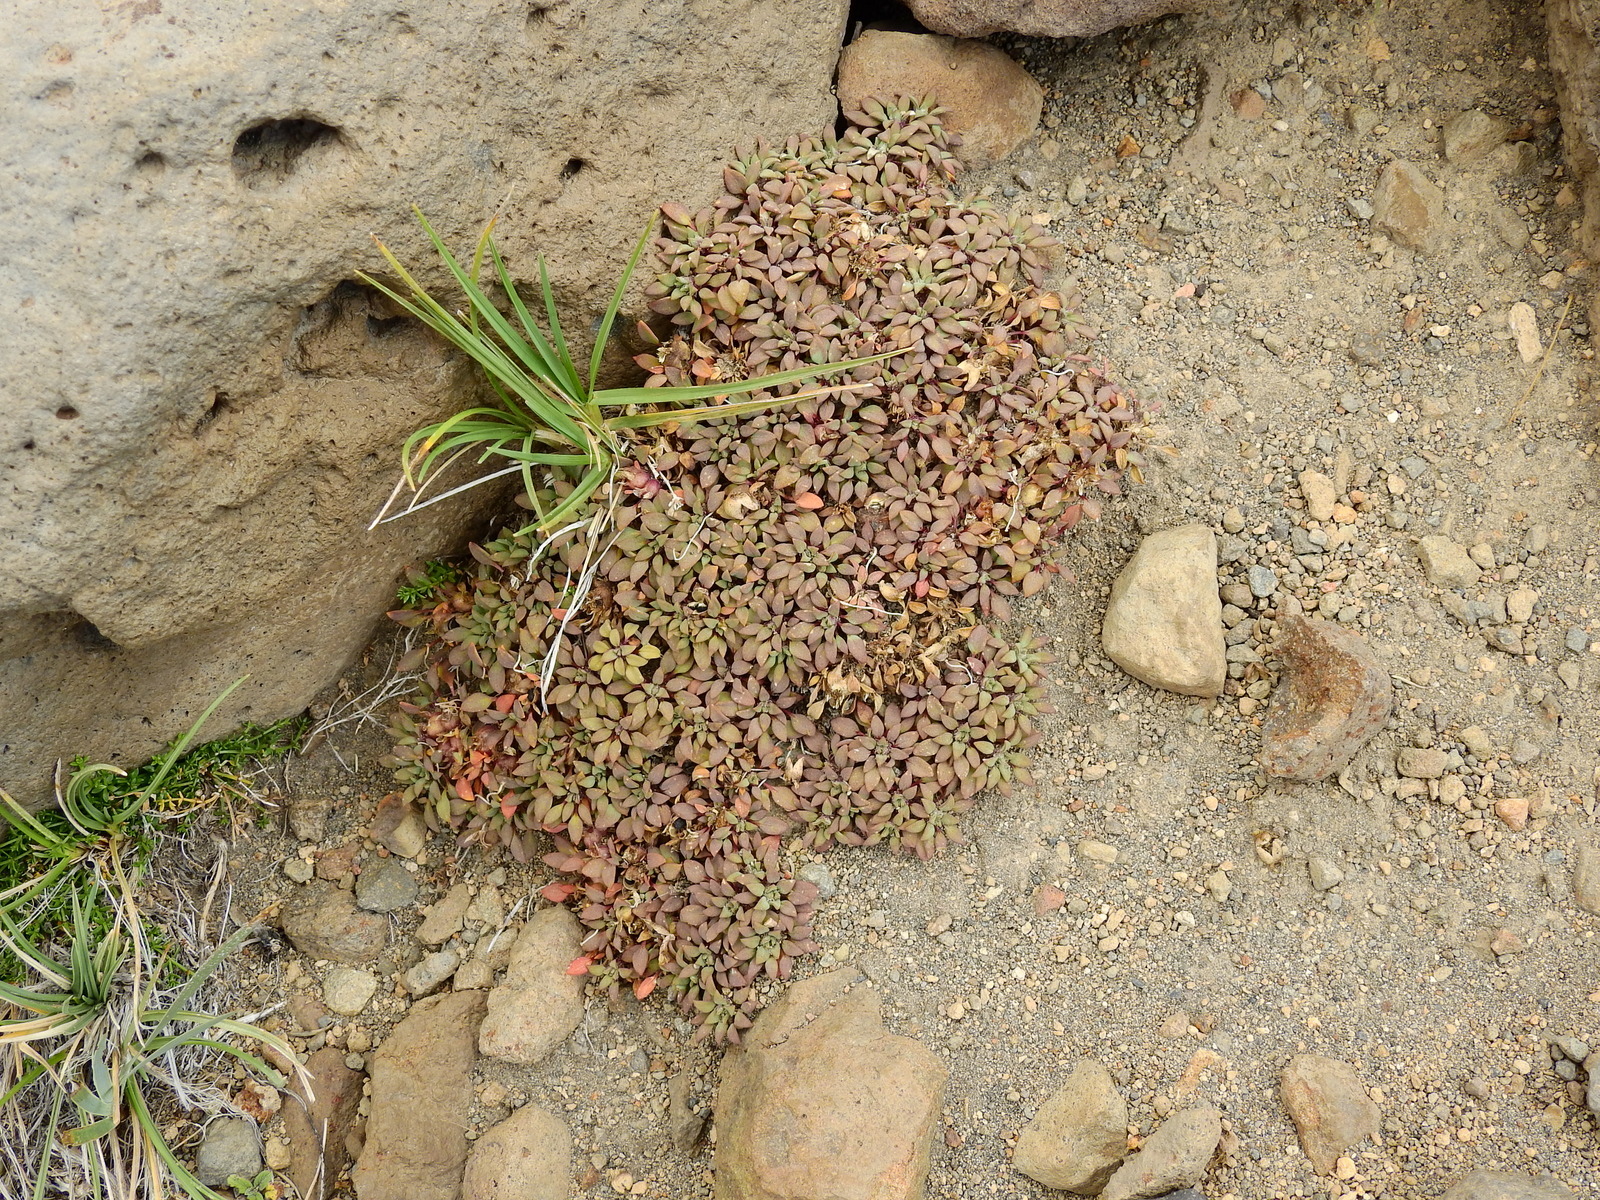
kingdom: Plantae
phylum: Tracheophyta
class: Magnoliopsida
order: Gentianales
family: Rubiaceae
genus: Oreopolus
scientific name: Oreopolus glacialis
